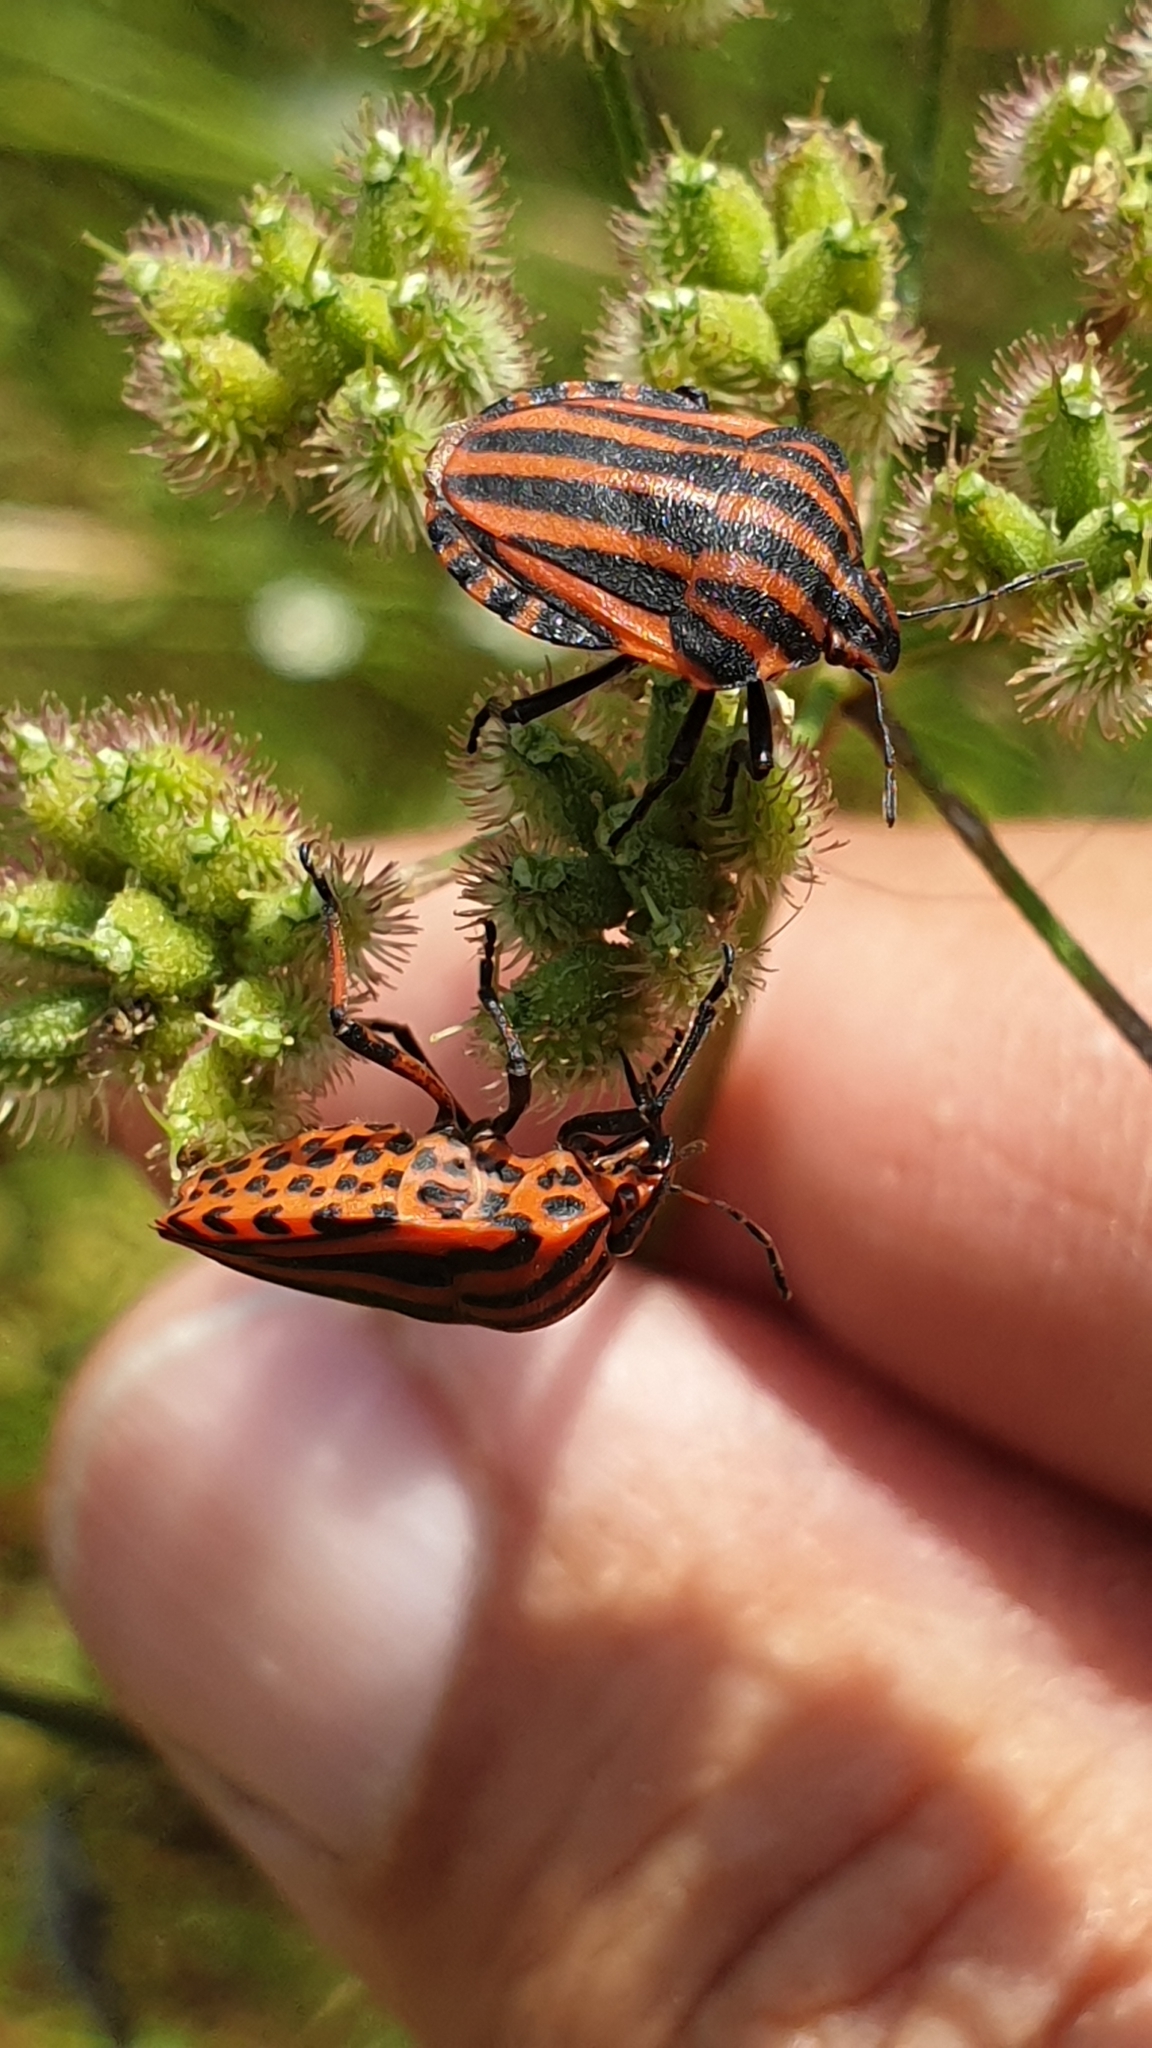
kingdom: Animalia
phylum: Arthropoda
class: Insecta
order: Hemiptera
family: Pentatomidae
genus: Graphosoma
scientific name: Graphosoma italicum
